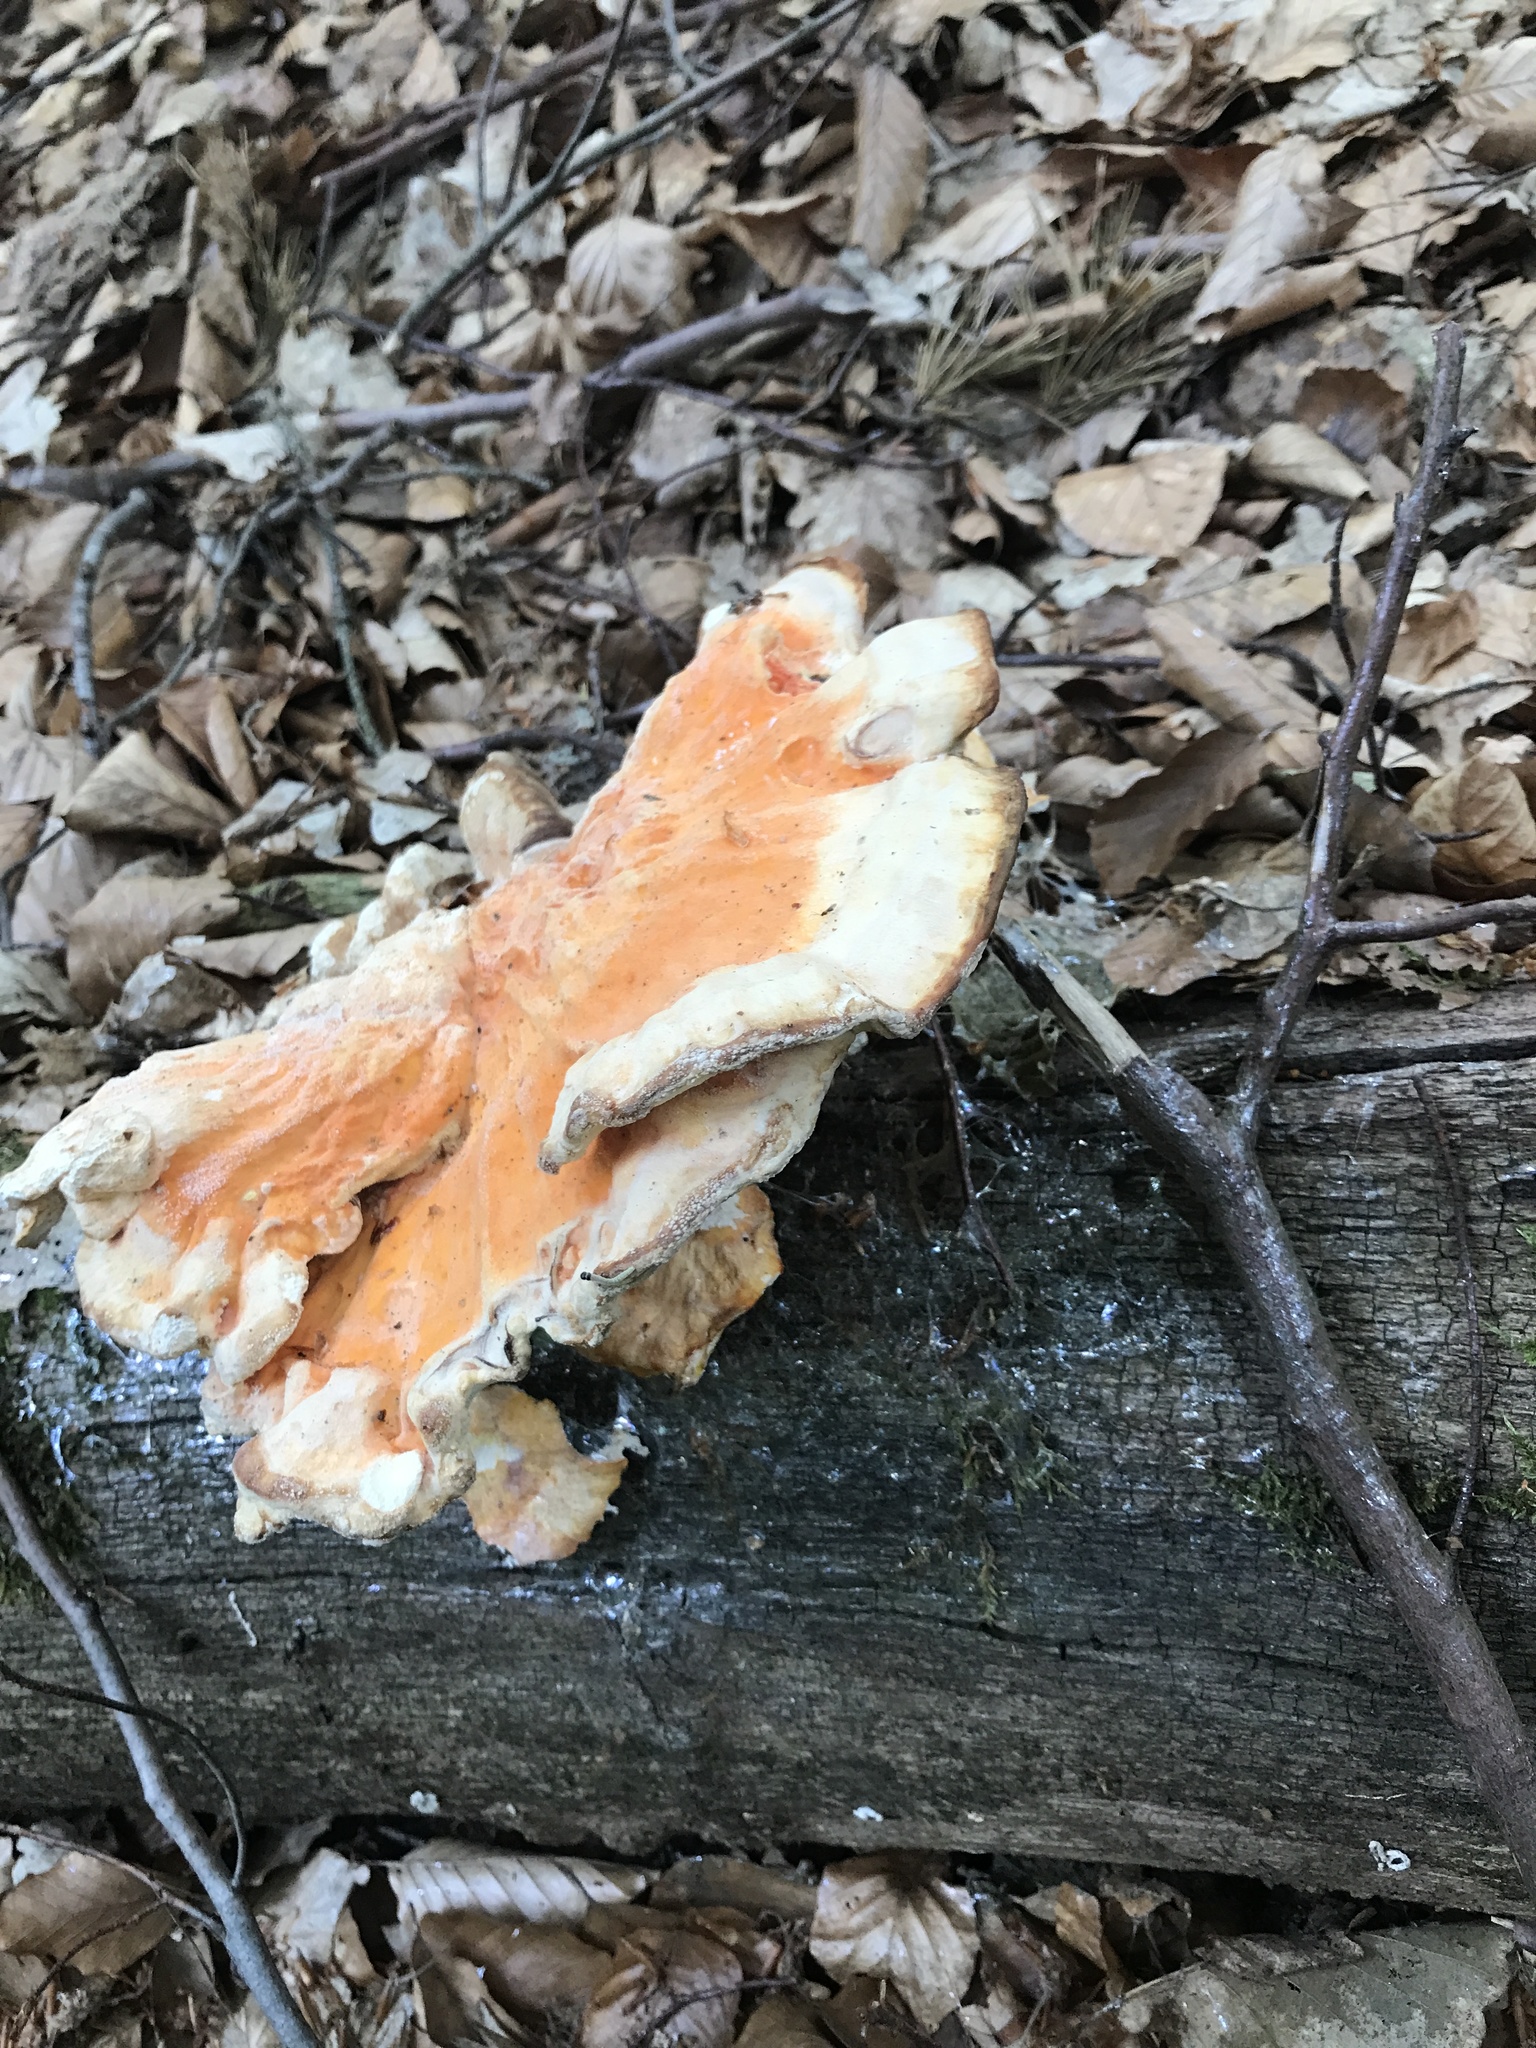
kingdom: Fungi
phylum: Basidiomycota
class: Agaricomycetes
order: Polyporales
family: Laetiporaceae
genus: Laetiporus
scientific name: Laetiporus sulphureus
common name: Chicken of the woods
